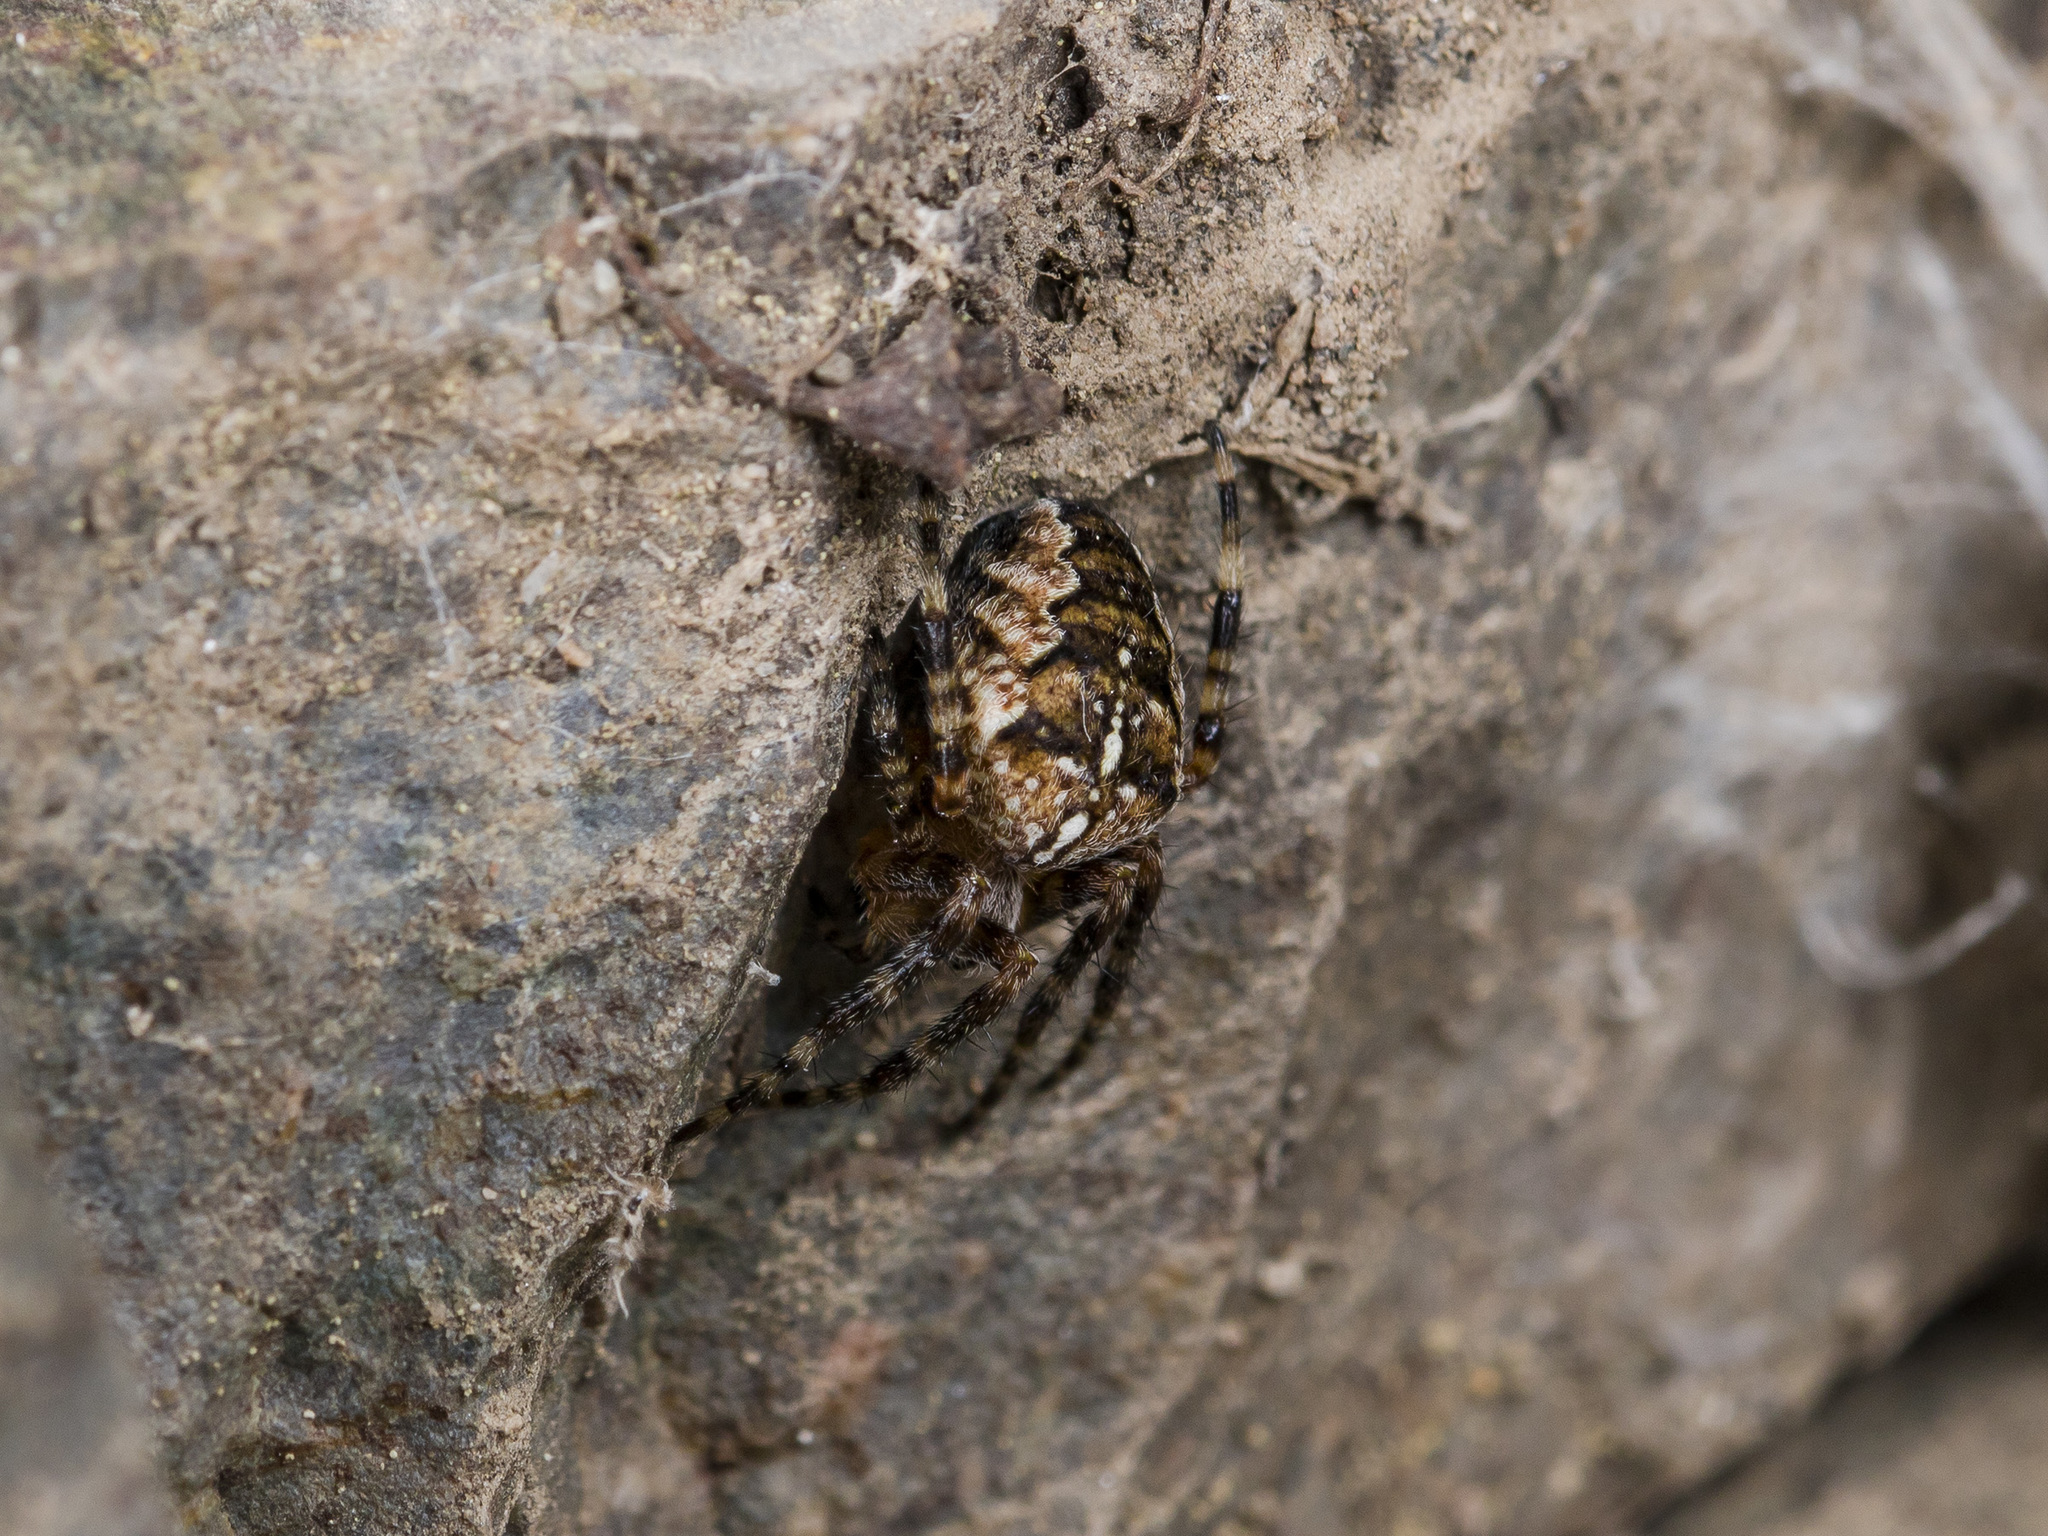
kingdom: Animalia
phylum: Arthropoda
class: Arachnida
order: Araneae
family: Araneidae
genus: Araneus
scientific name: Araneus diadematus
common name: Cross orbweaver
